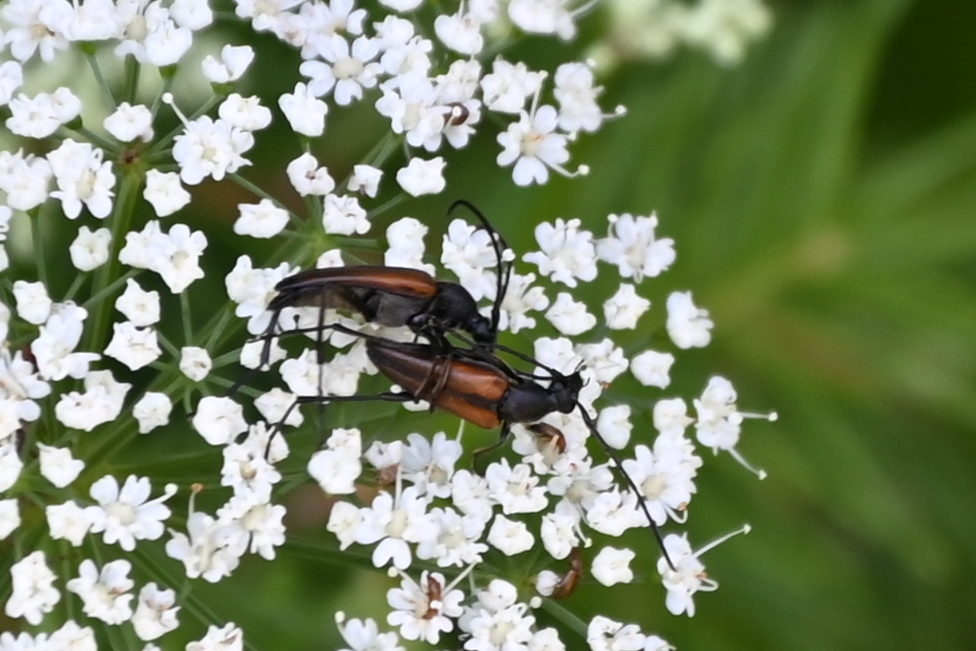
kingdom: Animalia
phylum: Arthropoda
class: Insecta
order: Coleoptera
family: Cerambycidae
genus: Stenurella
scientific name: Stenurella melanura
